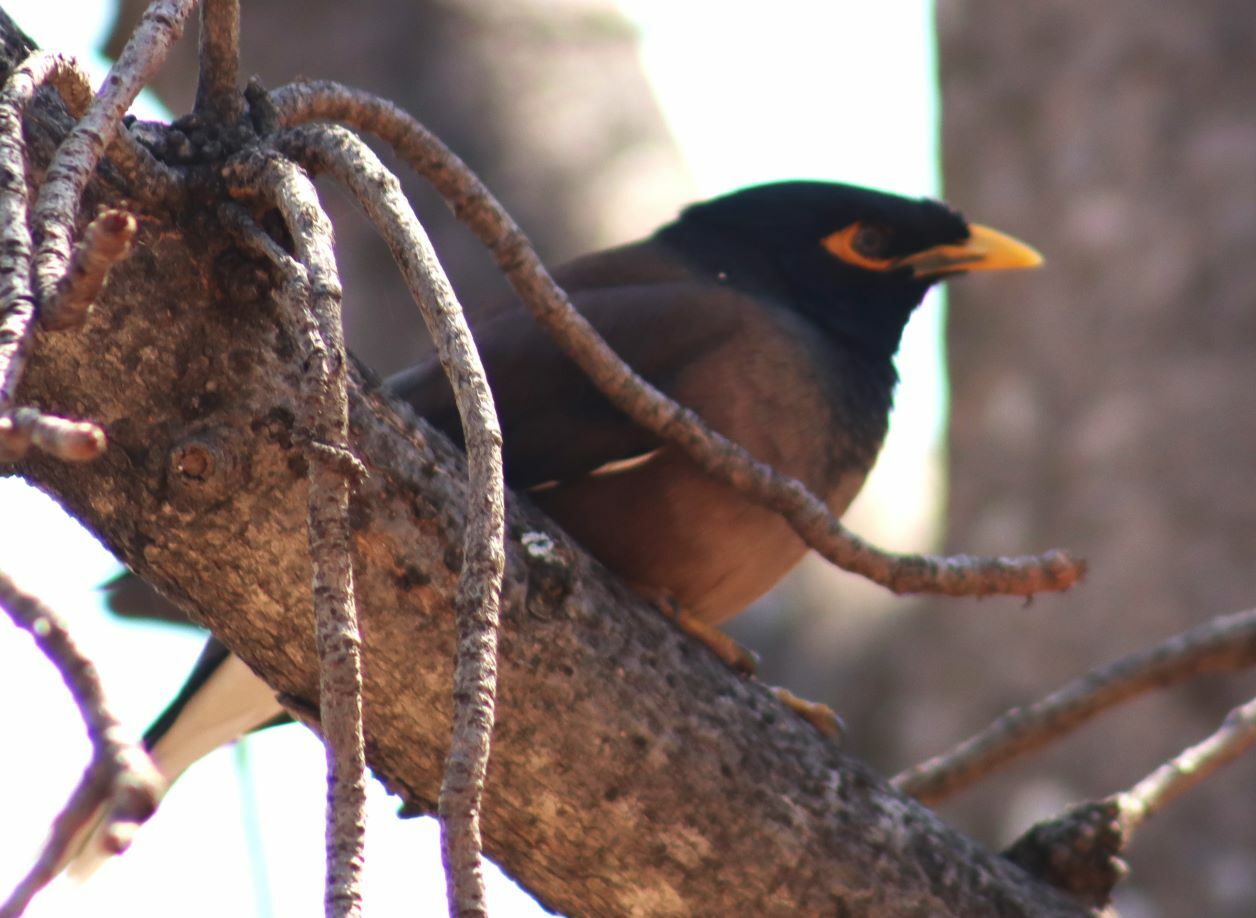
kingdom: Animalia
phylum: Chordata
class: Aves
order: Passeriformes
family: Sturnidae
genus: Acridotheres
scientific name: Acridotheres tristis
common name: Common myna
